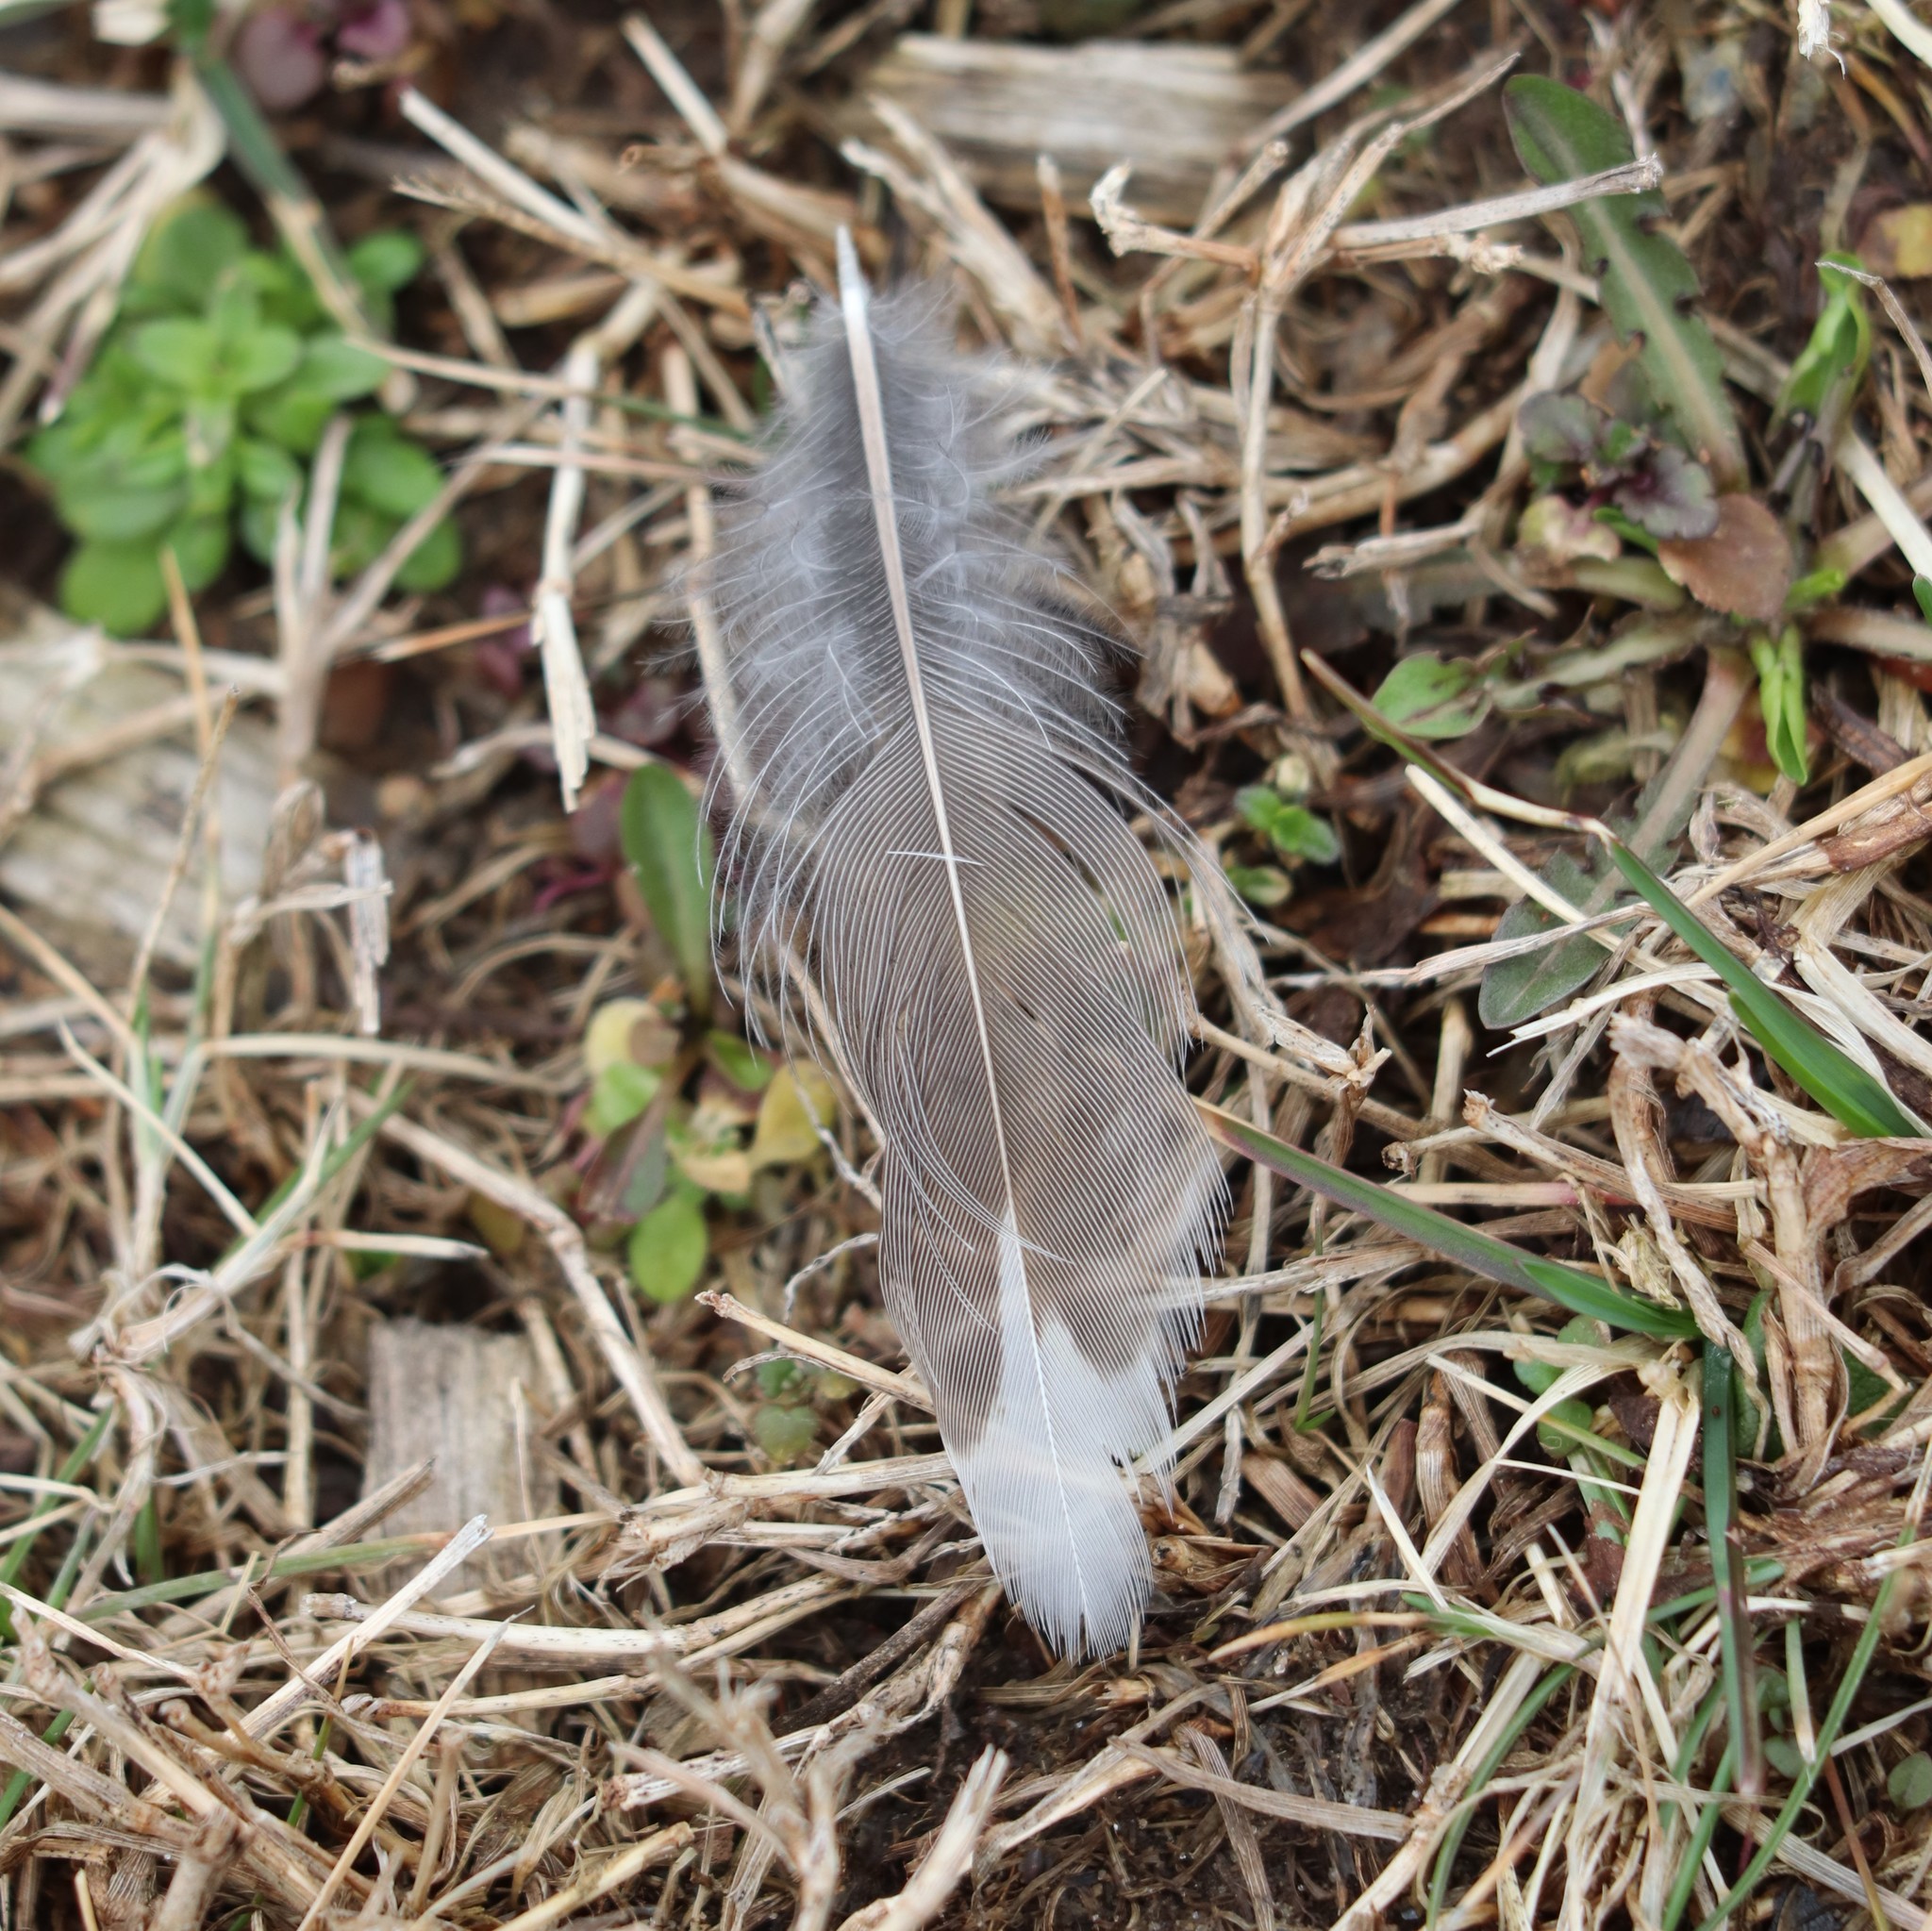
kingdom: Animalia
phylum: Chordata
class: Aves
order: Passeriformes
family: Turdidae
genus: Turdus
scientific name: Turdus migratorius
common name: American robin
